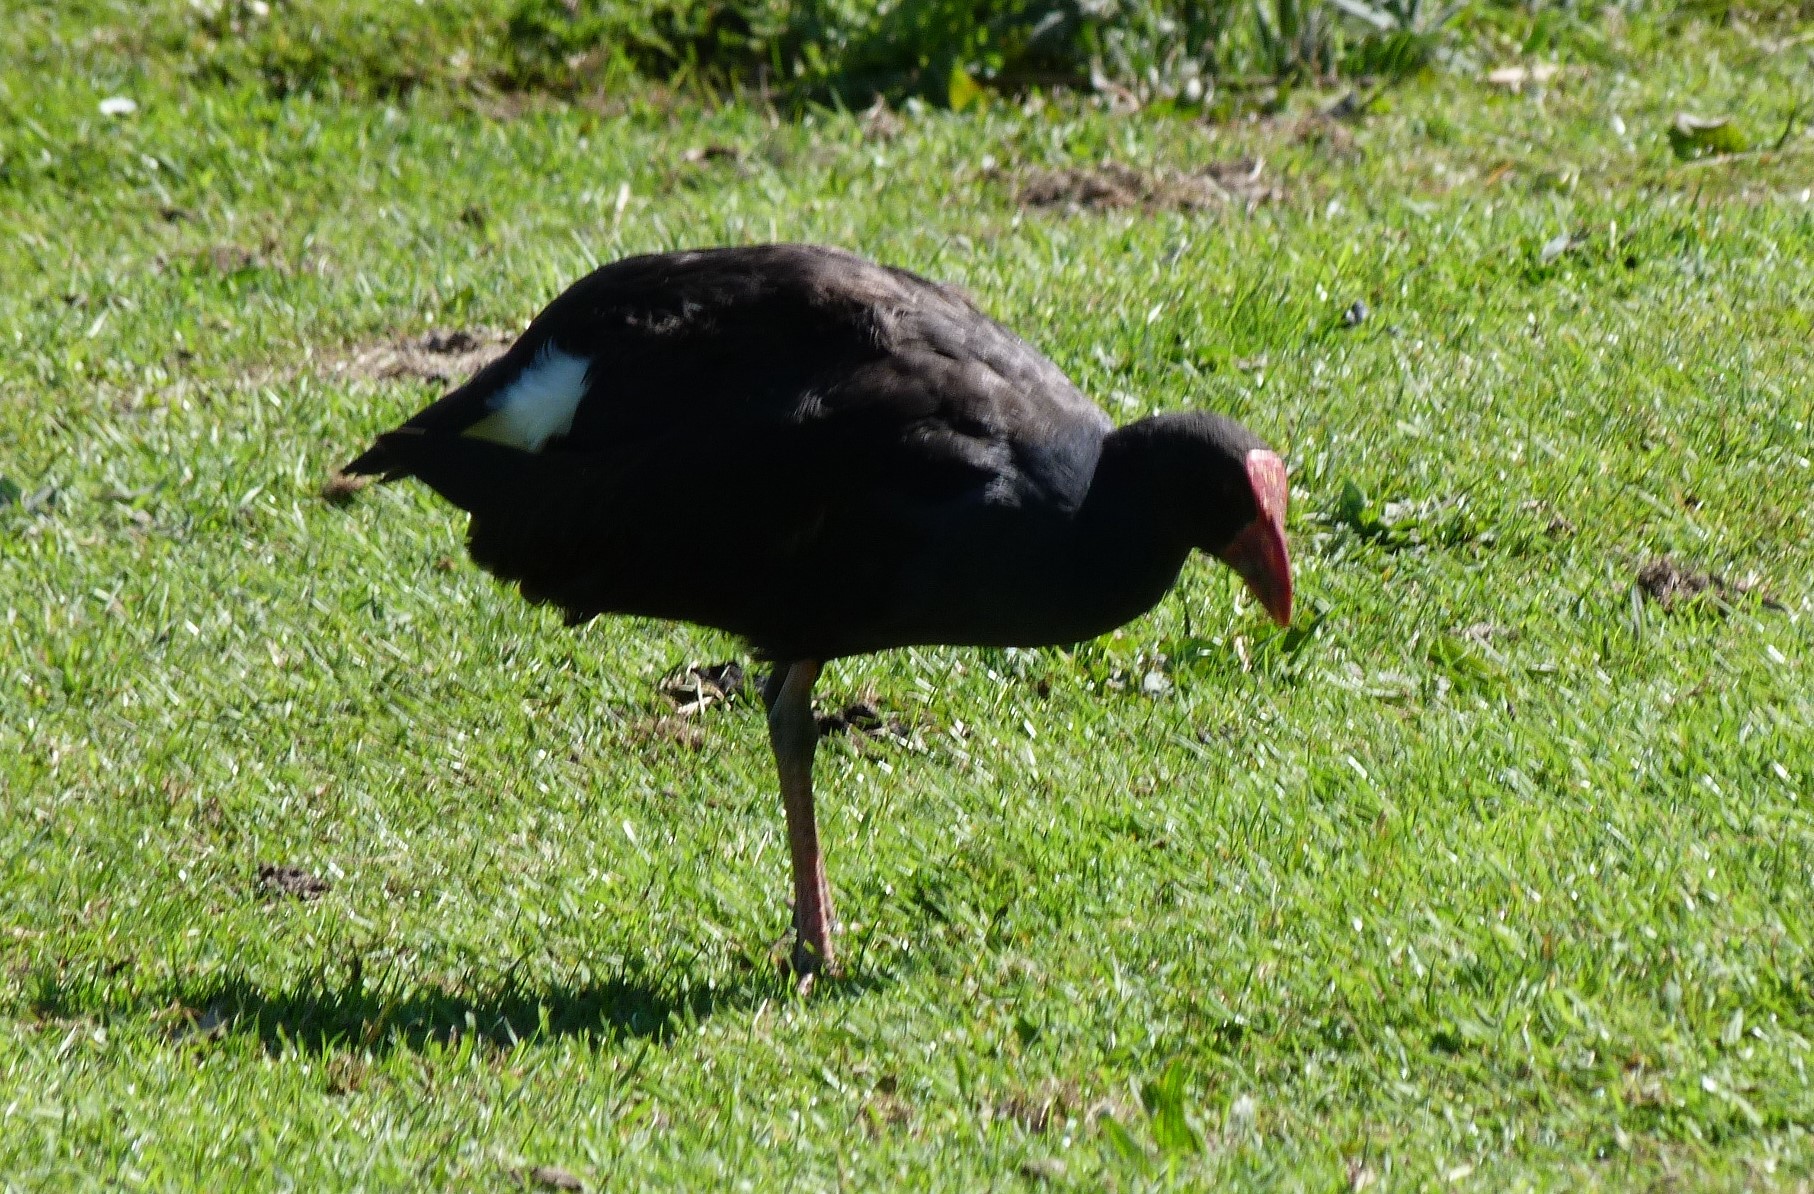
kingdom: Animalia
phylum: Chordata
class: Aves
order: Gruiformes
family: Rallidae
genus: Porphyrio
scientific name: Porphyrio melanotus
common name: Australasian swamphen
